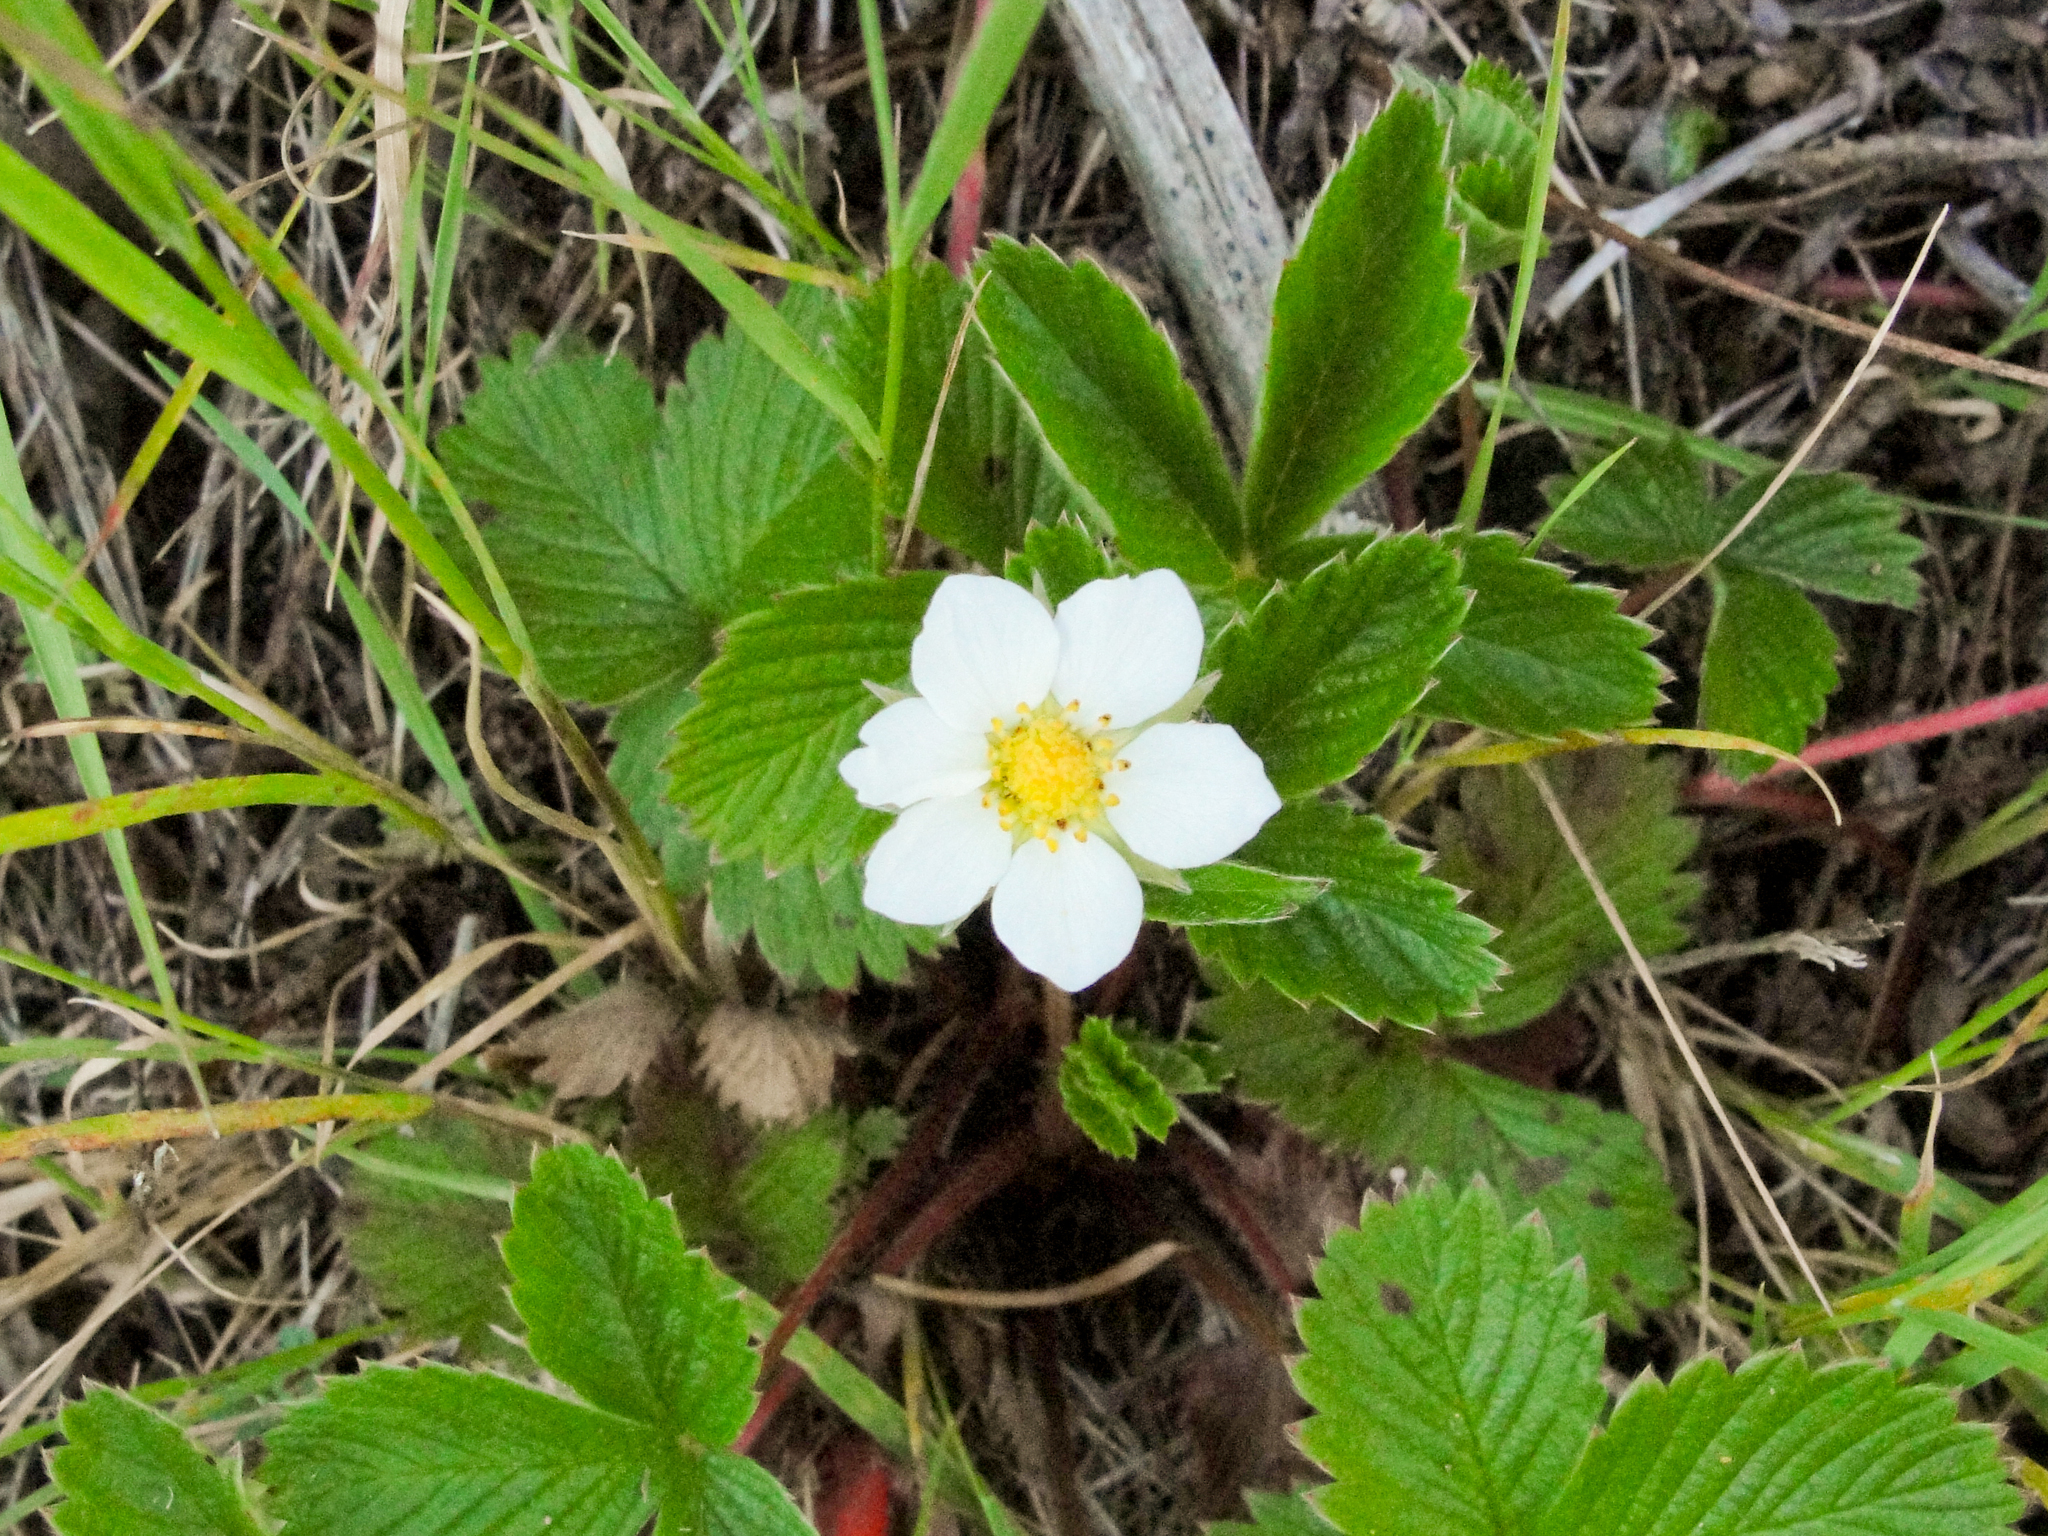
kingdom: Plantae
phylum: Tracheophyta
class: Magnoliopsida
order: Rosales
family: Rosaceae
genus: Fragaria
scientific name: Fragaria vesca
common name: Wild strawberry
